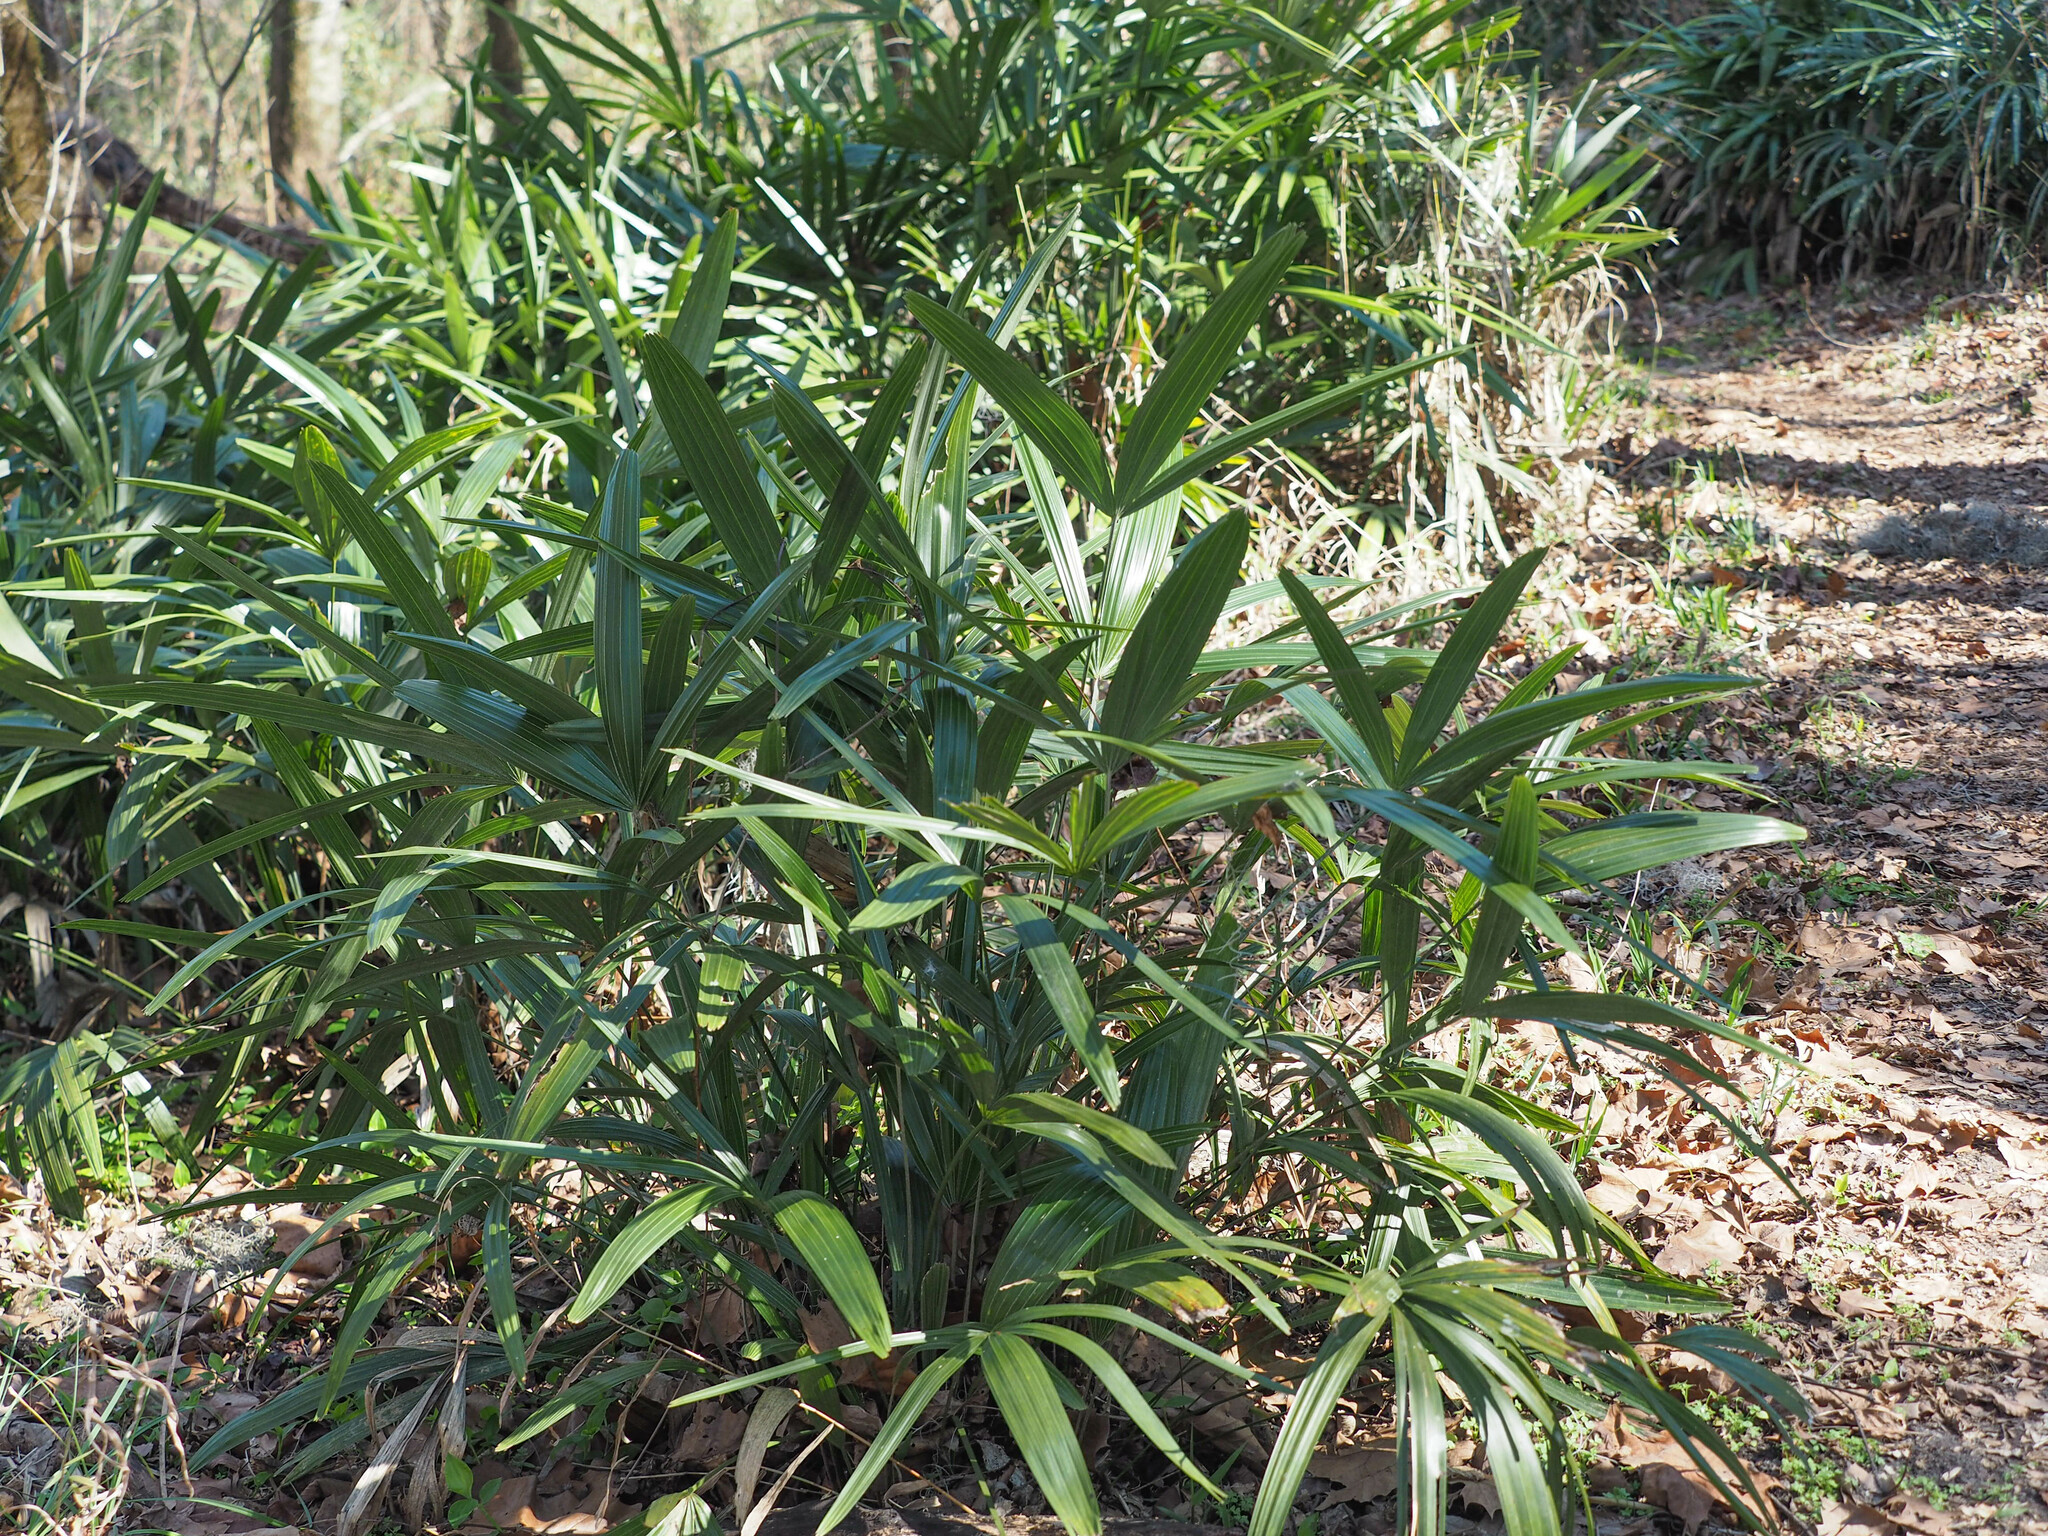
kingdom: Plantae
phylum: Tracheophyta
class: Liliopsida
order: Arecales
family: Arecaceae
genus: Rhapidophyllum
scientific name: Rhapidophyllum hystrix
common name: Porcupine palm
